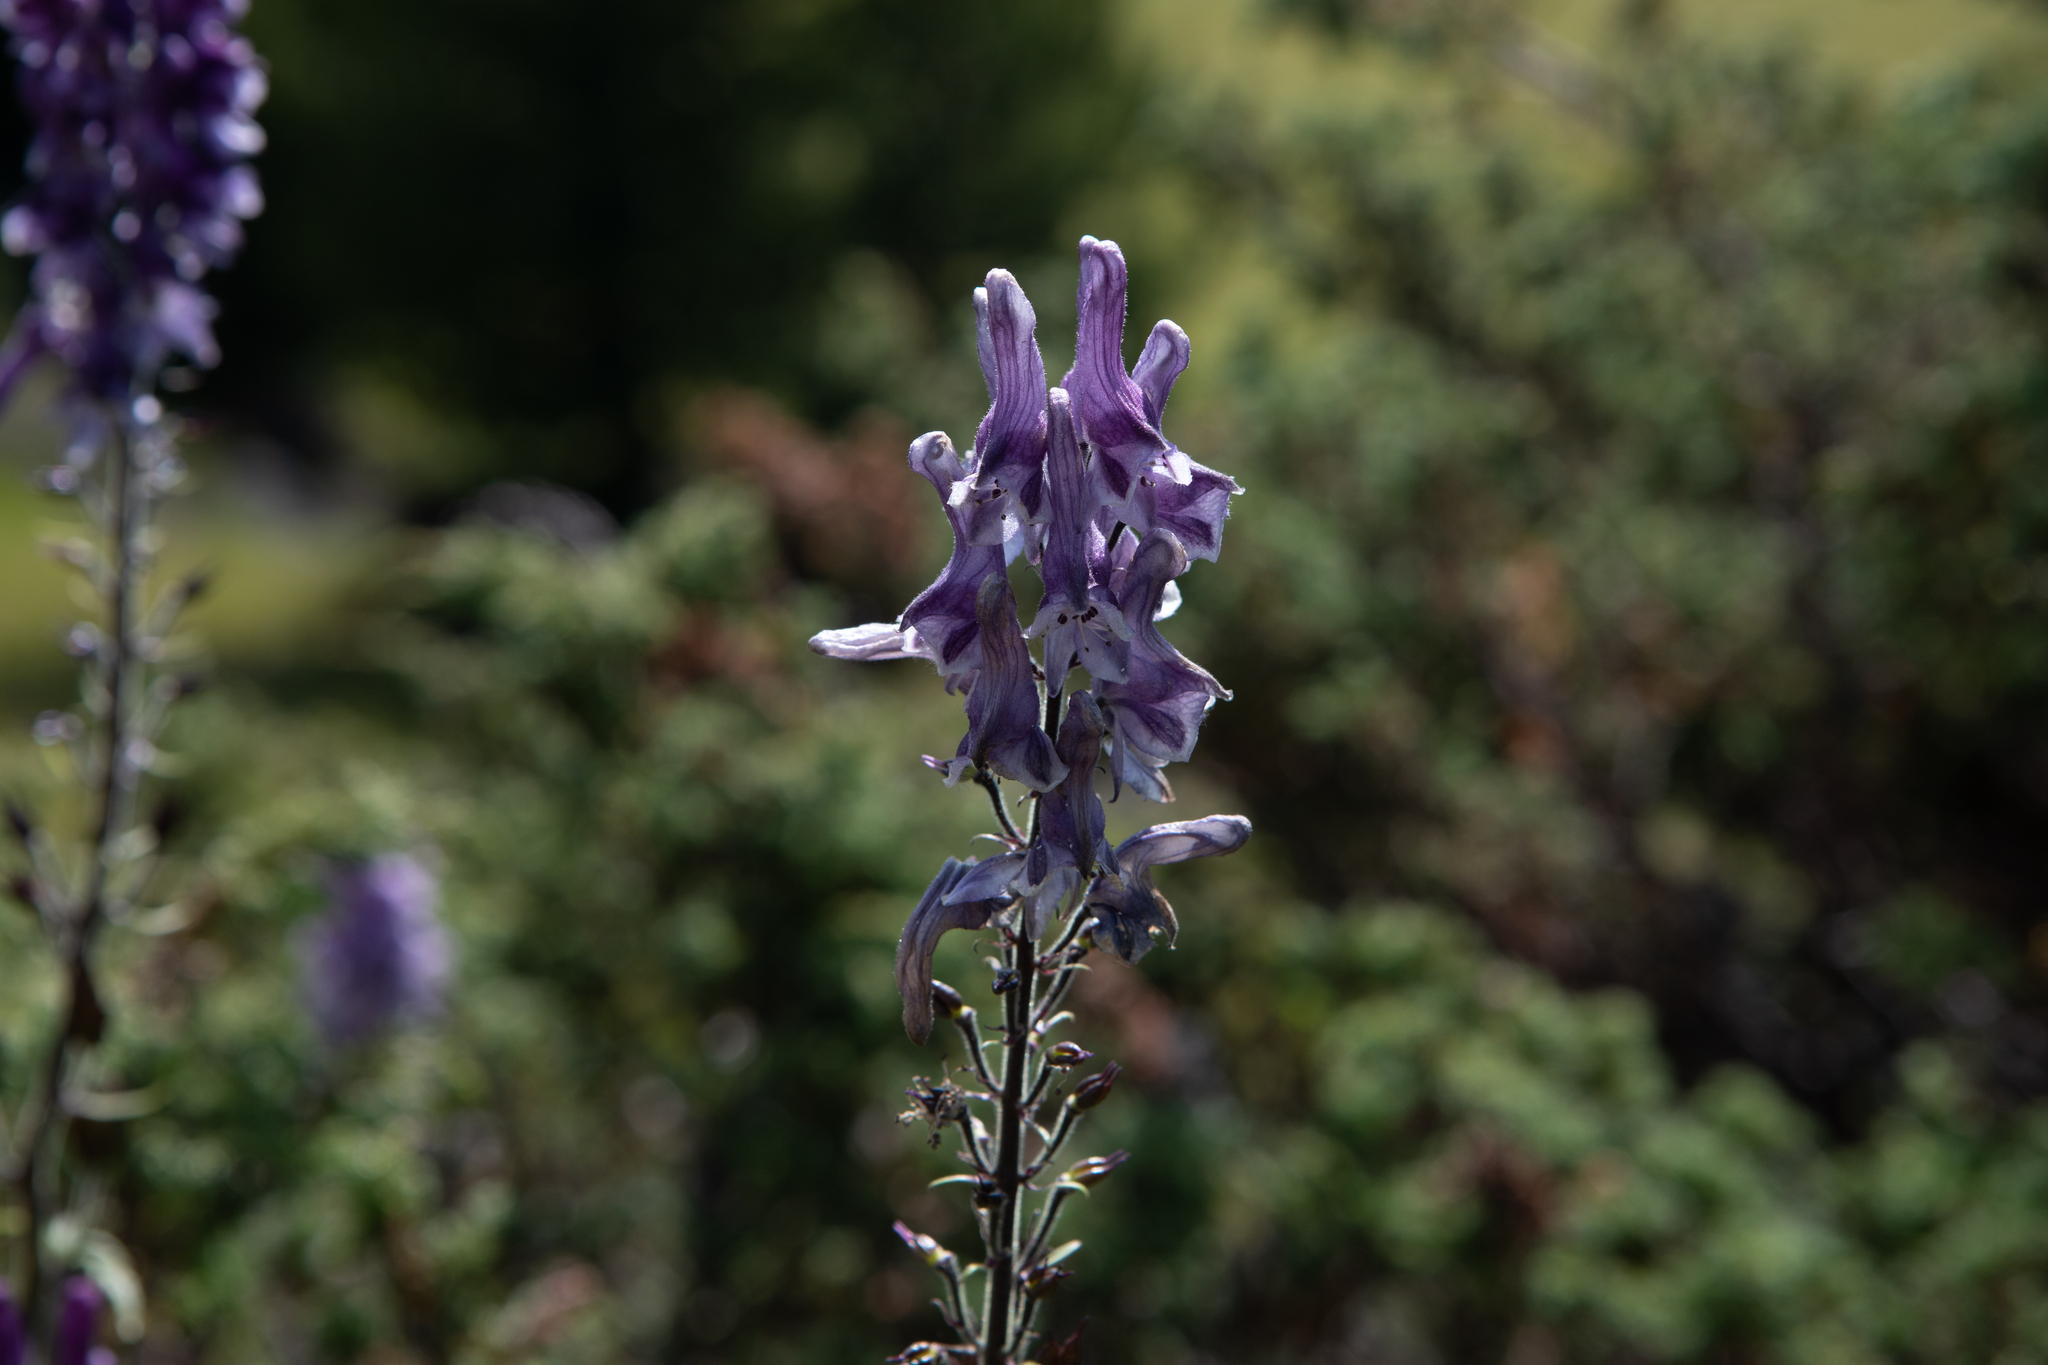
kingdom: Plantae
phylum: Tracheophyta
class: Magnoliopsida
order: Ranunculales
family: Ranunculaceae
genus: Aconitum
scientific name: Aconitum leucostomum
